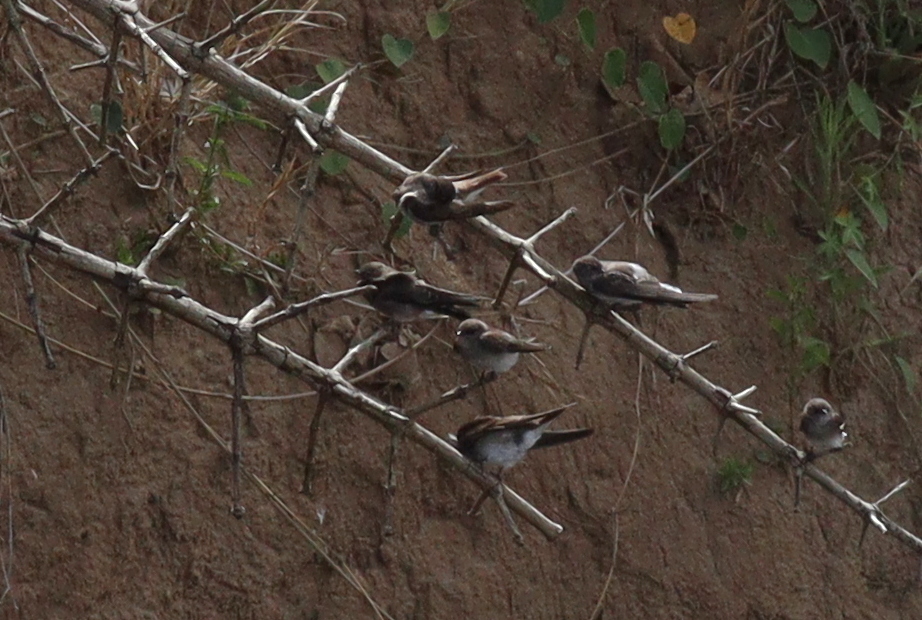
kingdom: Animalia
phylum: Chordata
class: Aves
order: Passeriformes
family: Hirundinidae
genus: Riparia
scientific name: Riparia paludicola
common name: Brown-throated martin
